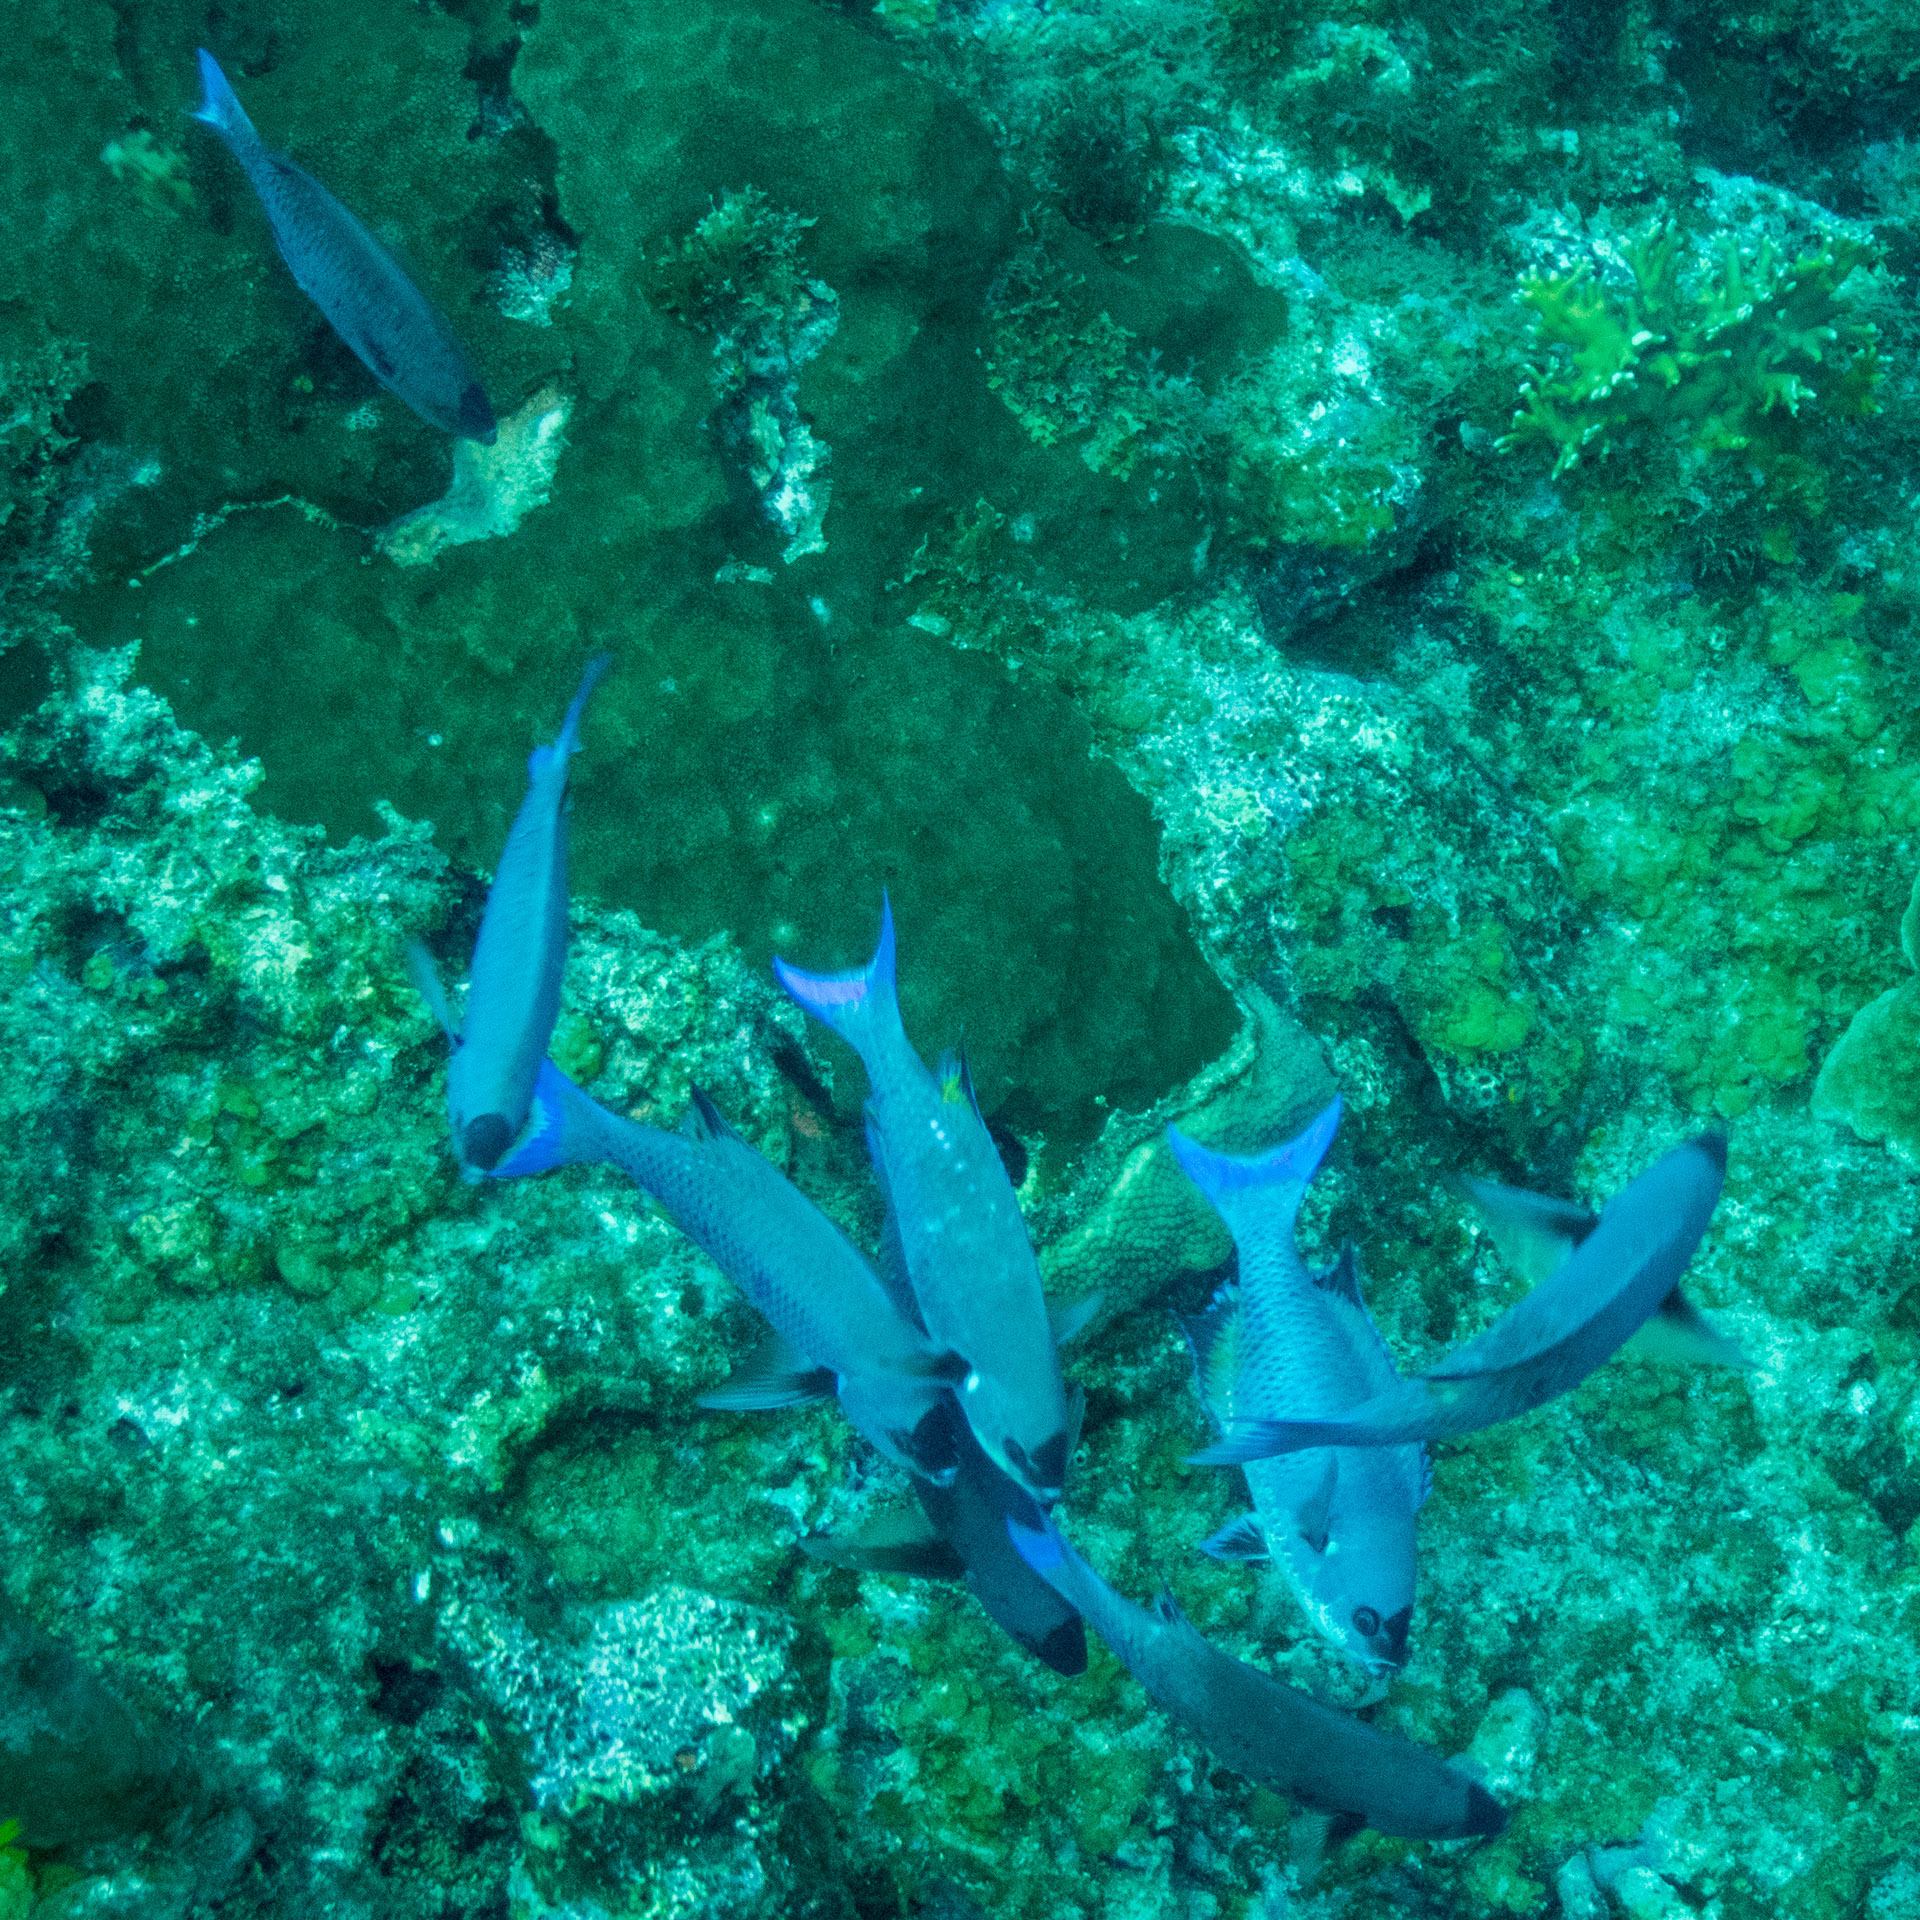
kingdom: Animalia
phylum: Chordata
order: Perciformes
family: Labridae
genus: Bodianus
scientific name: Bodianus
